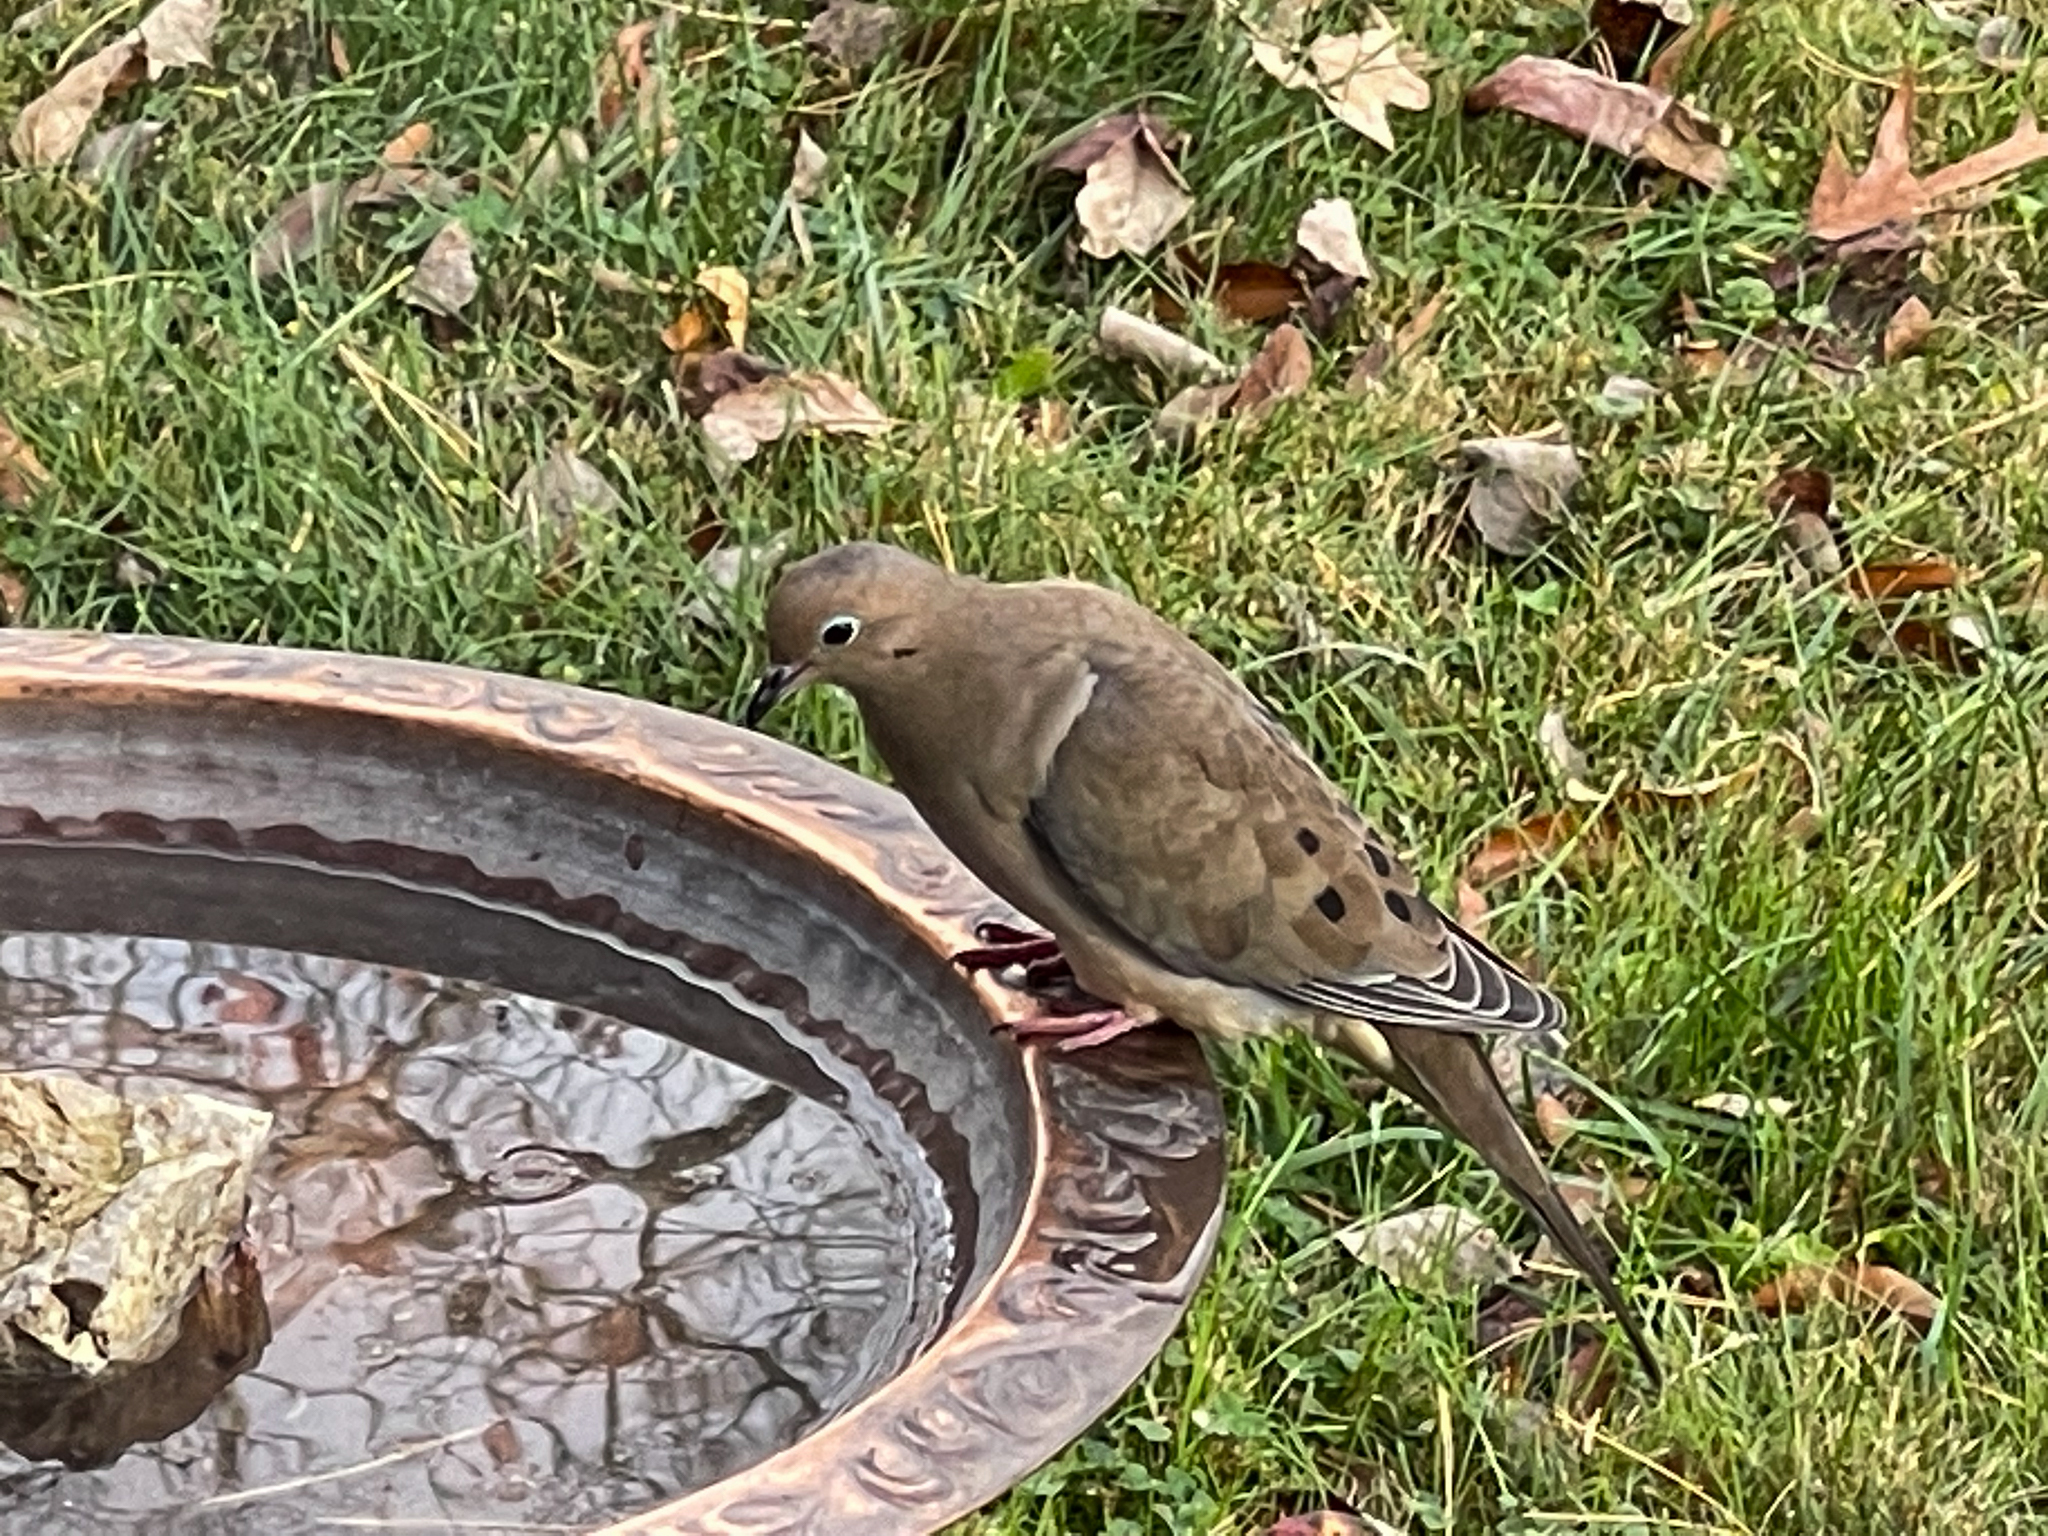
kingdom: Animalia
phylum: Chordata
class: Aves
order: Columbiformes
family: Columbidae
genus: Zenaida
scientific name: Zenaida macroura
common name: Mourning dove
